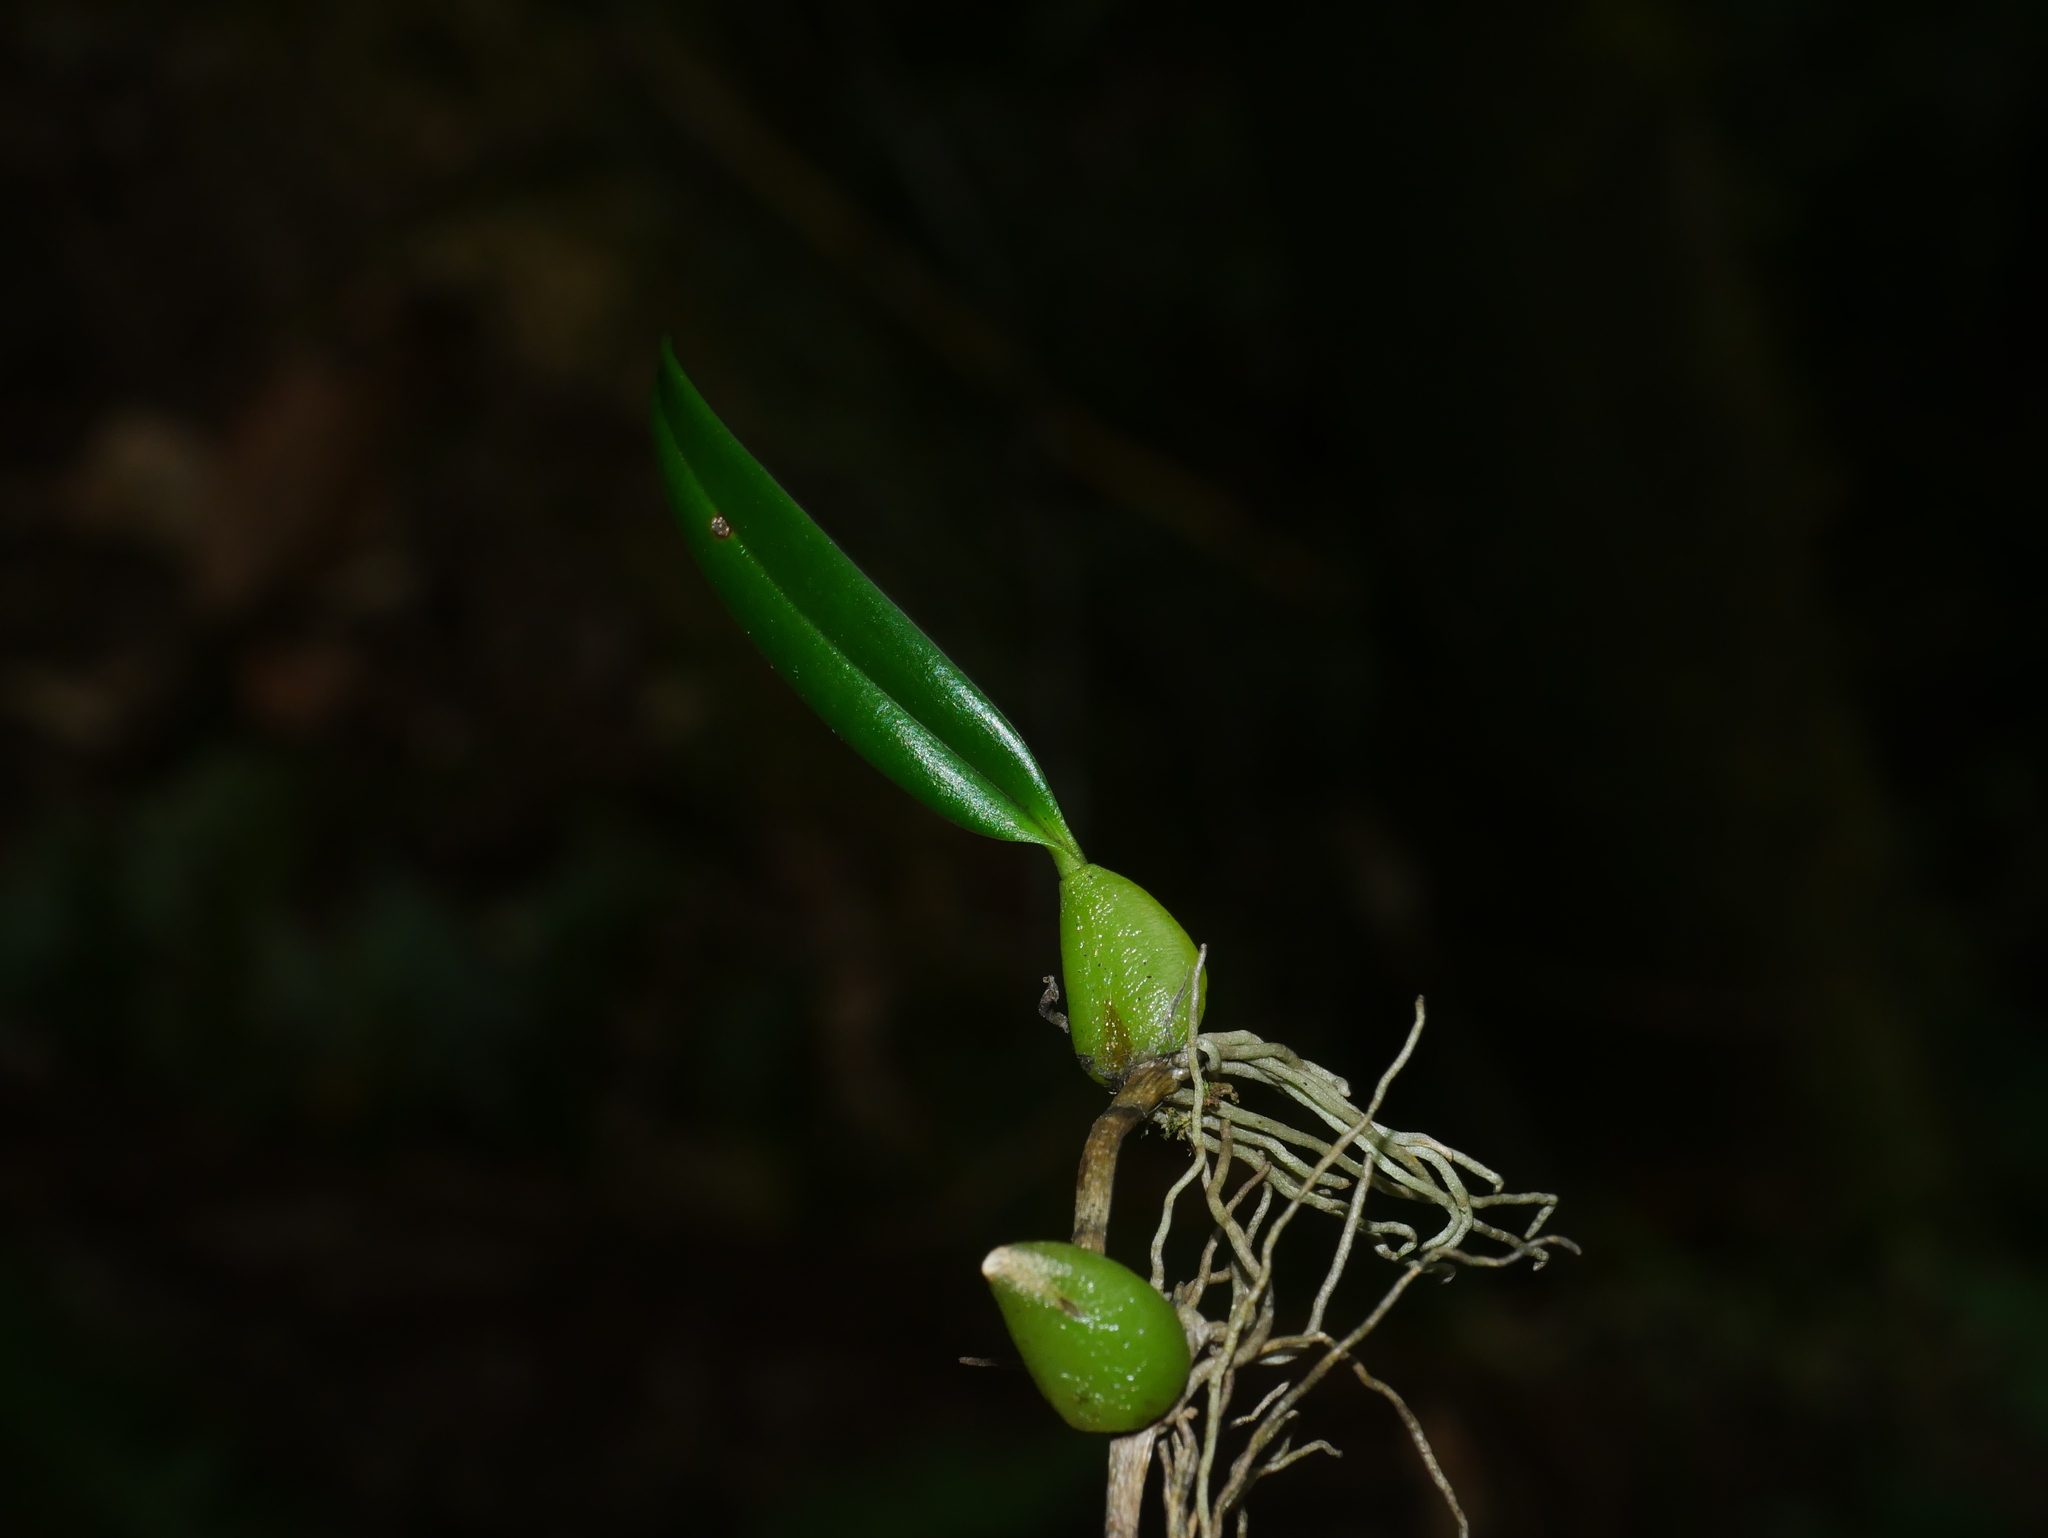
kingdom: Plantae
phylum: Tracheophyta
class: Liliopsida
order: Asparagales
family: Orchidaceae
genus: Bulbophyllum
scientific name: Bulbophyllum retusiusculum
